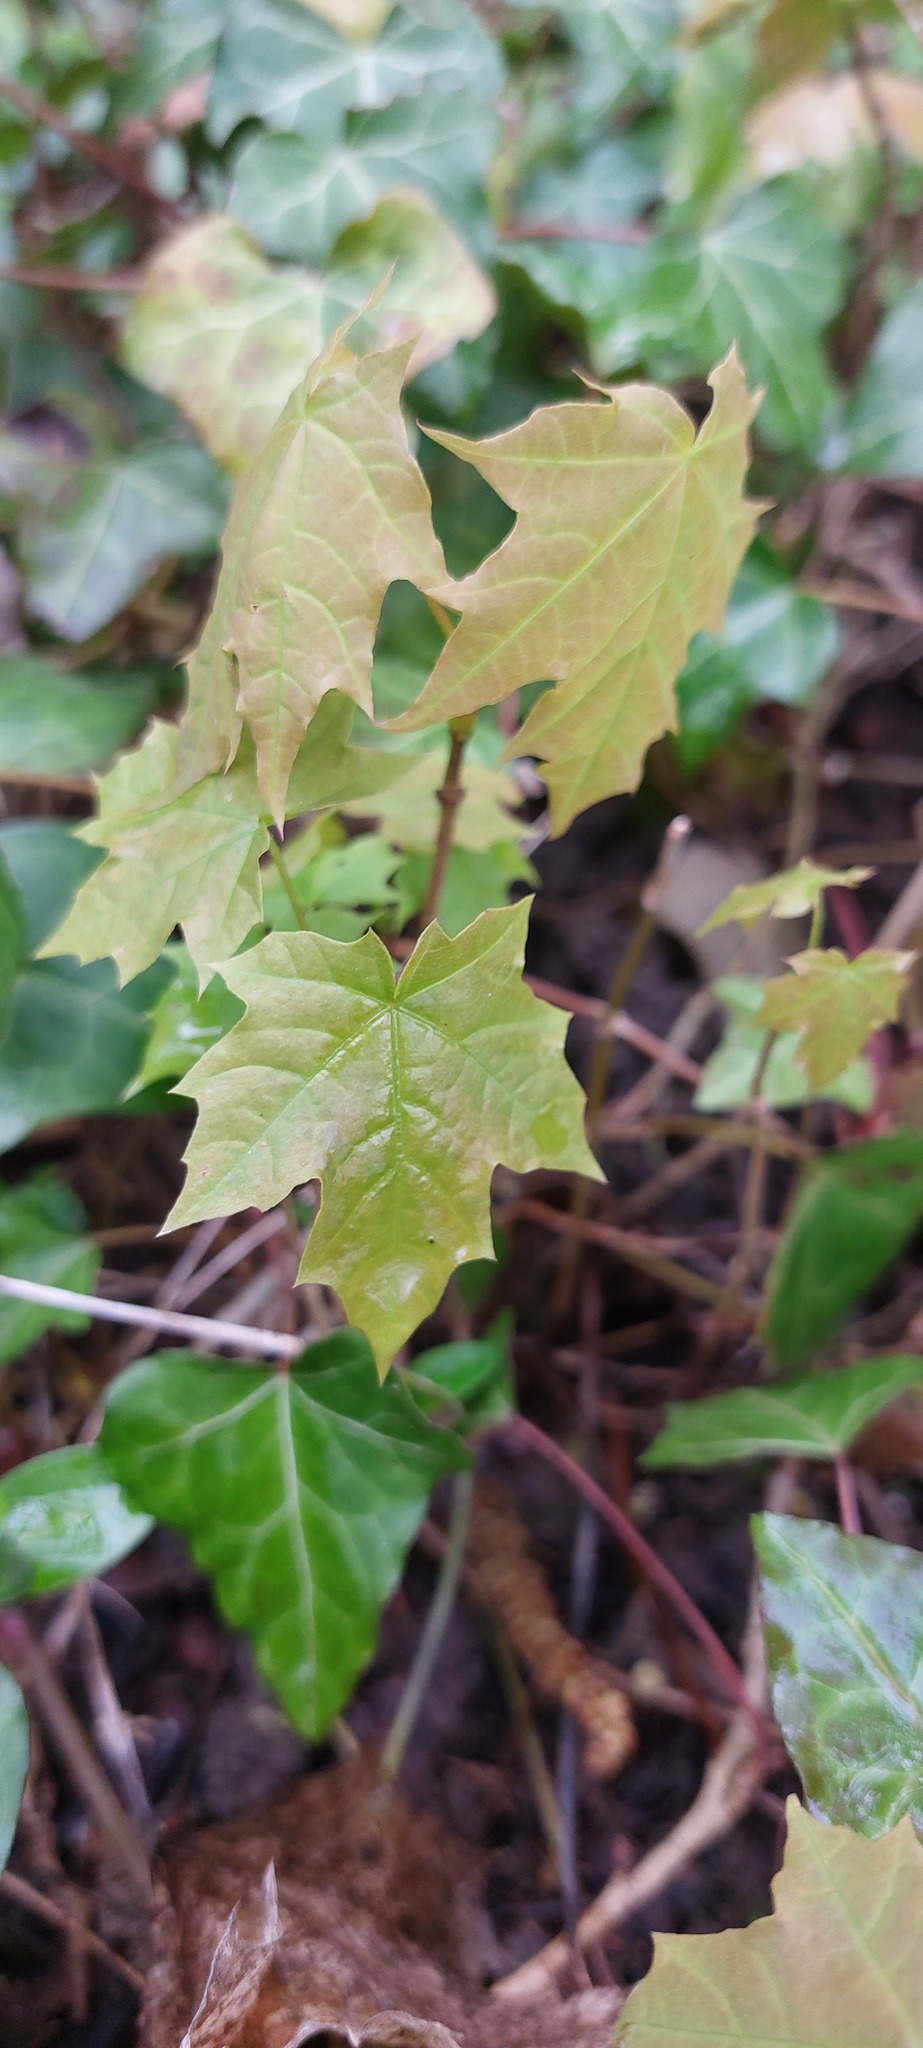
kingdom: Plantae
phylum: Tracheophyta
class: Magnoliopsida
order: Sapindales
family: Sapindaceae
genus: Acer
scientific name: Acer platanoides
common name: Norway maple
